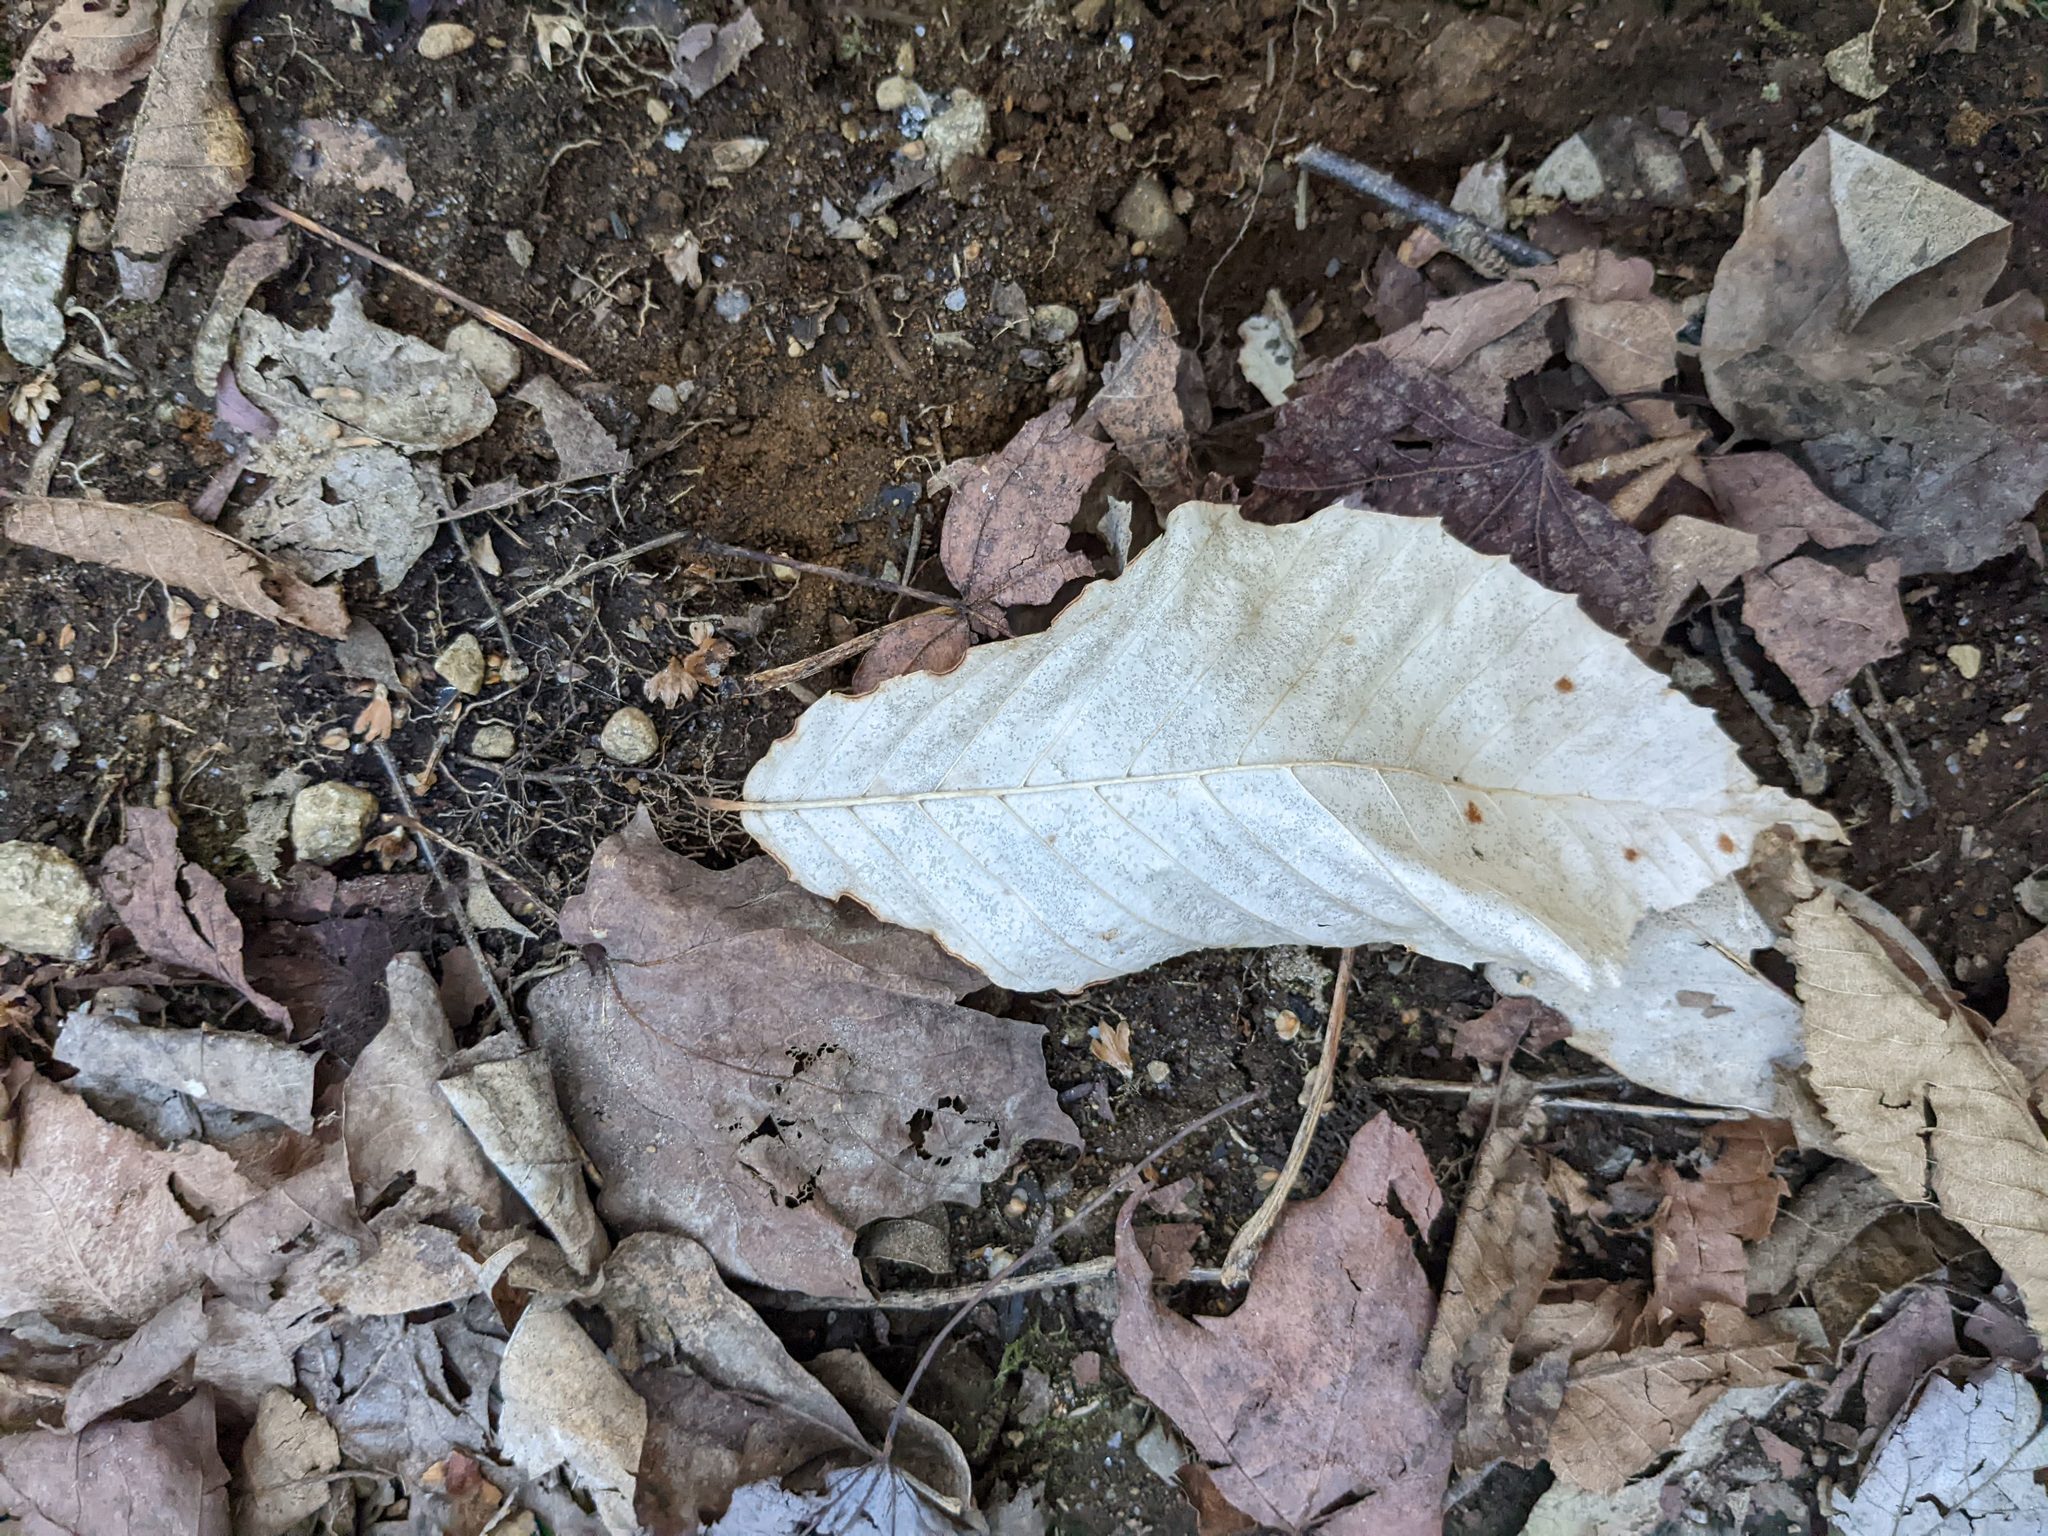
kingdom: Plantae
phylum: Tracheophyta
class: Magnoliopsida
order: Fagales
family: Fagaceae
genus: Fagus
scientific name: Fagus grandifolia
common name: American beech
